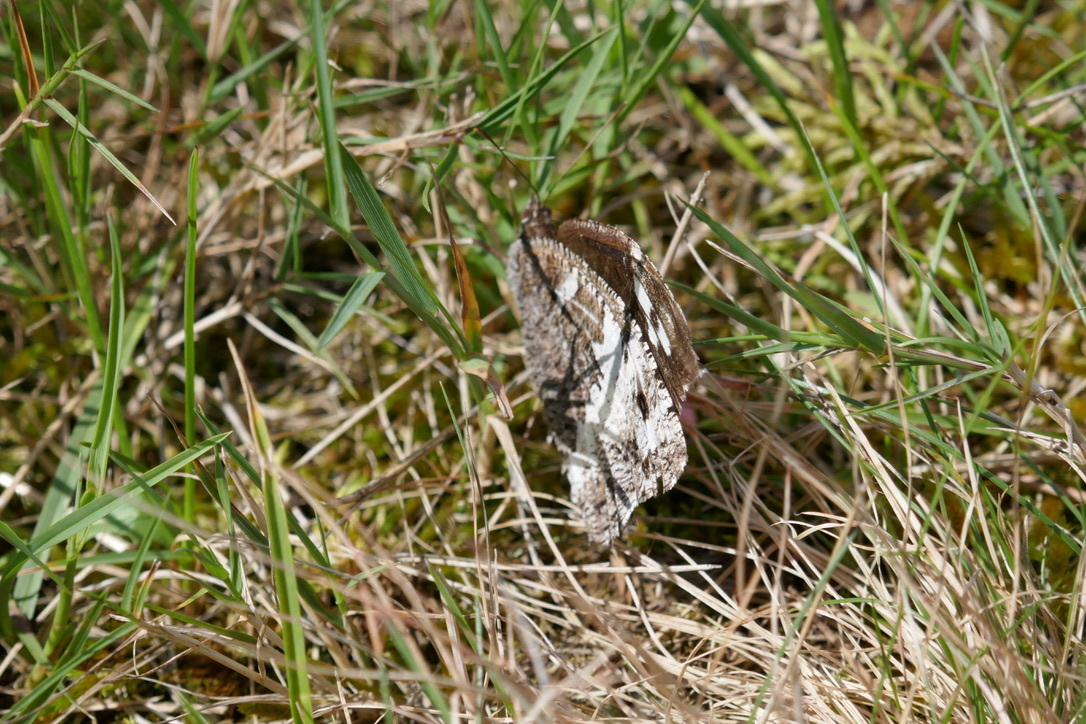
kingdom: Animalia
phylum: Arthropoda
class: Insecta
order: Lepidoptera
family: Lycaenidae
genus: Loweia
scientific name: Loweia tityrus
